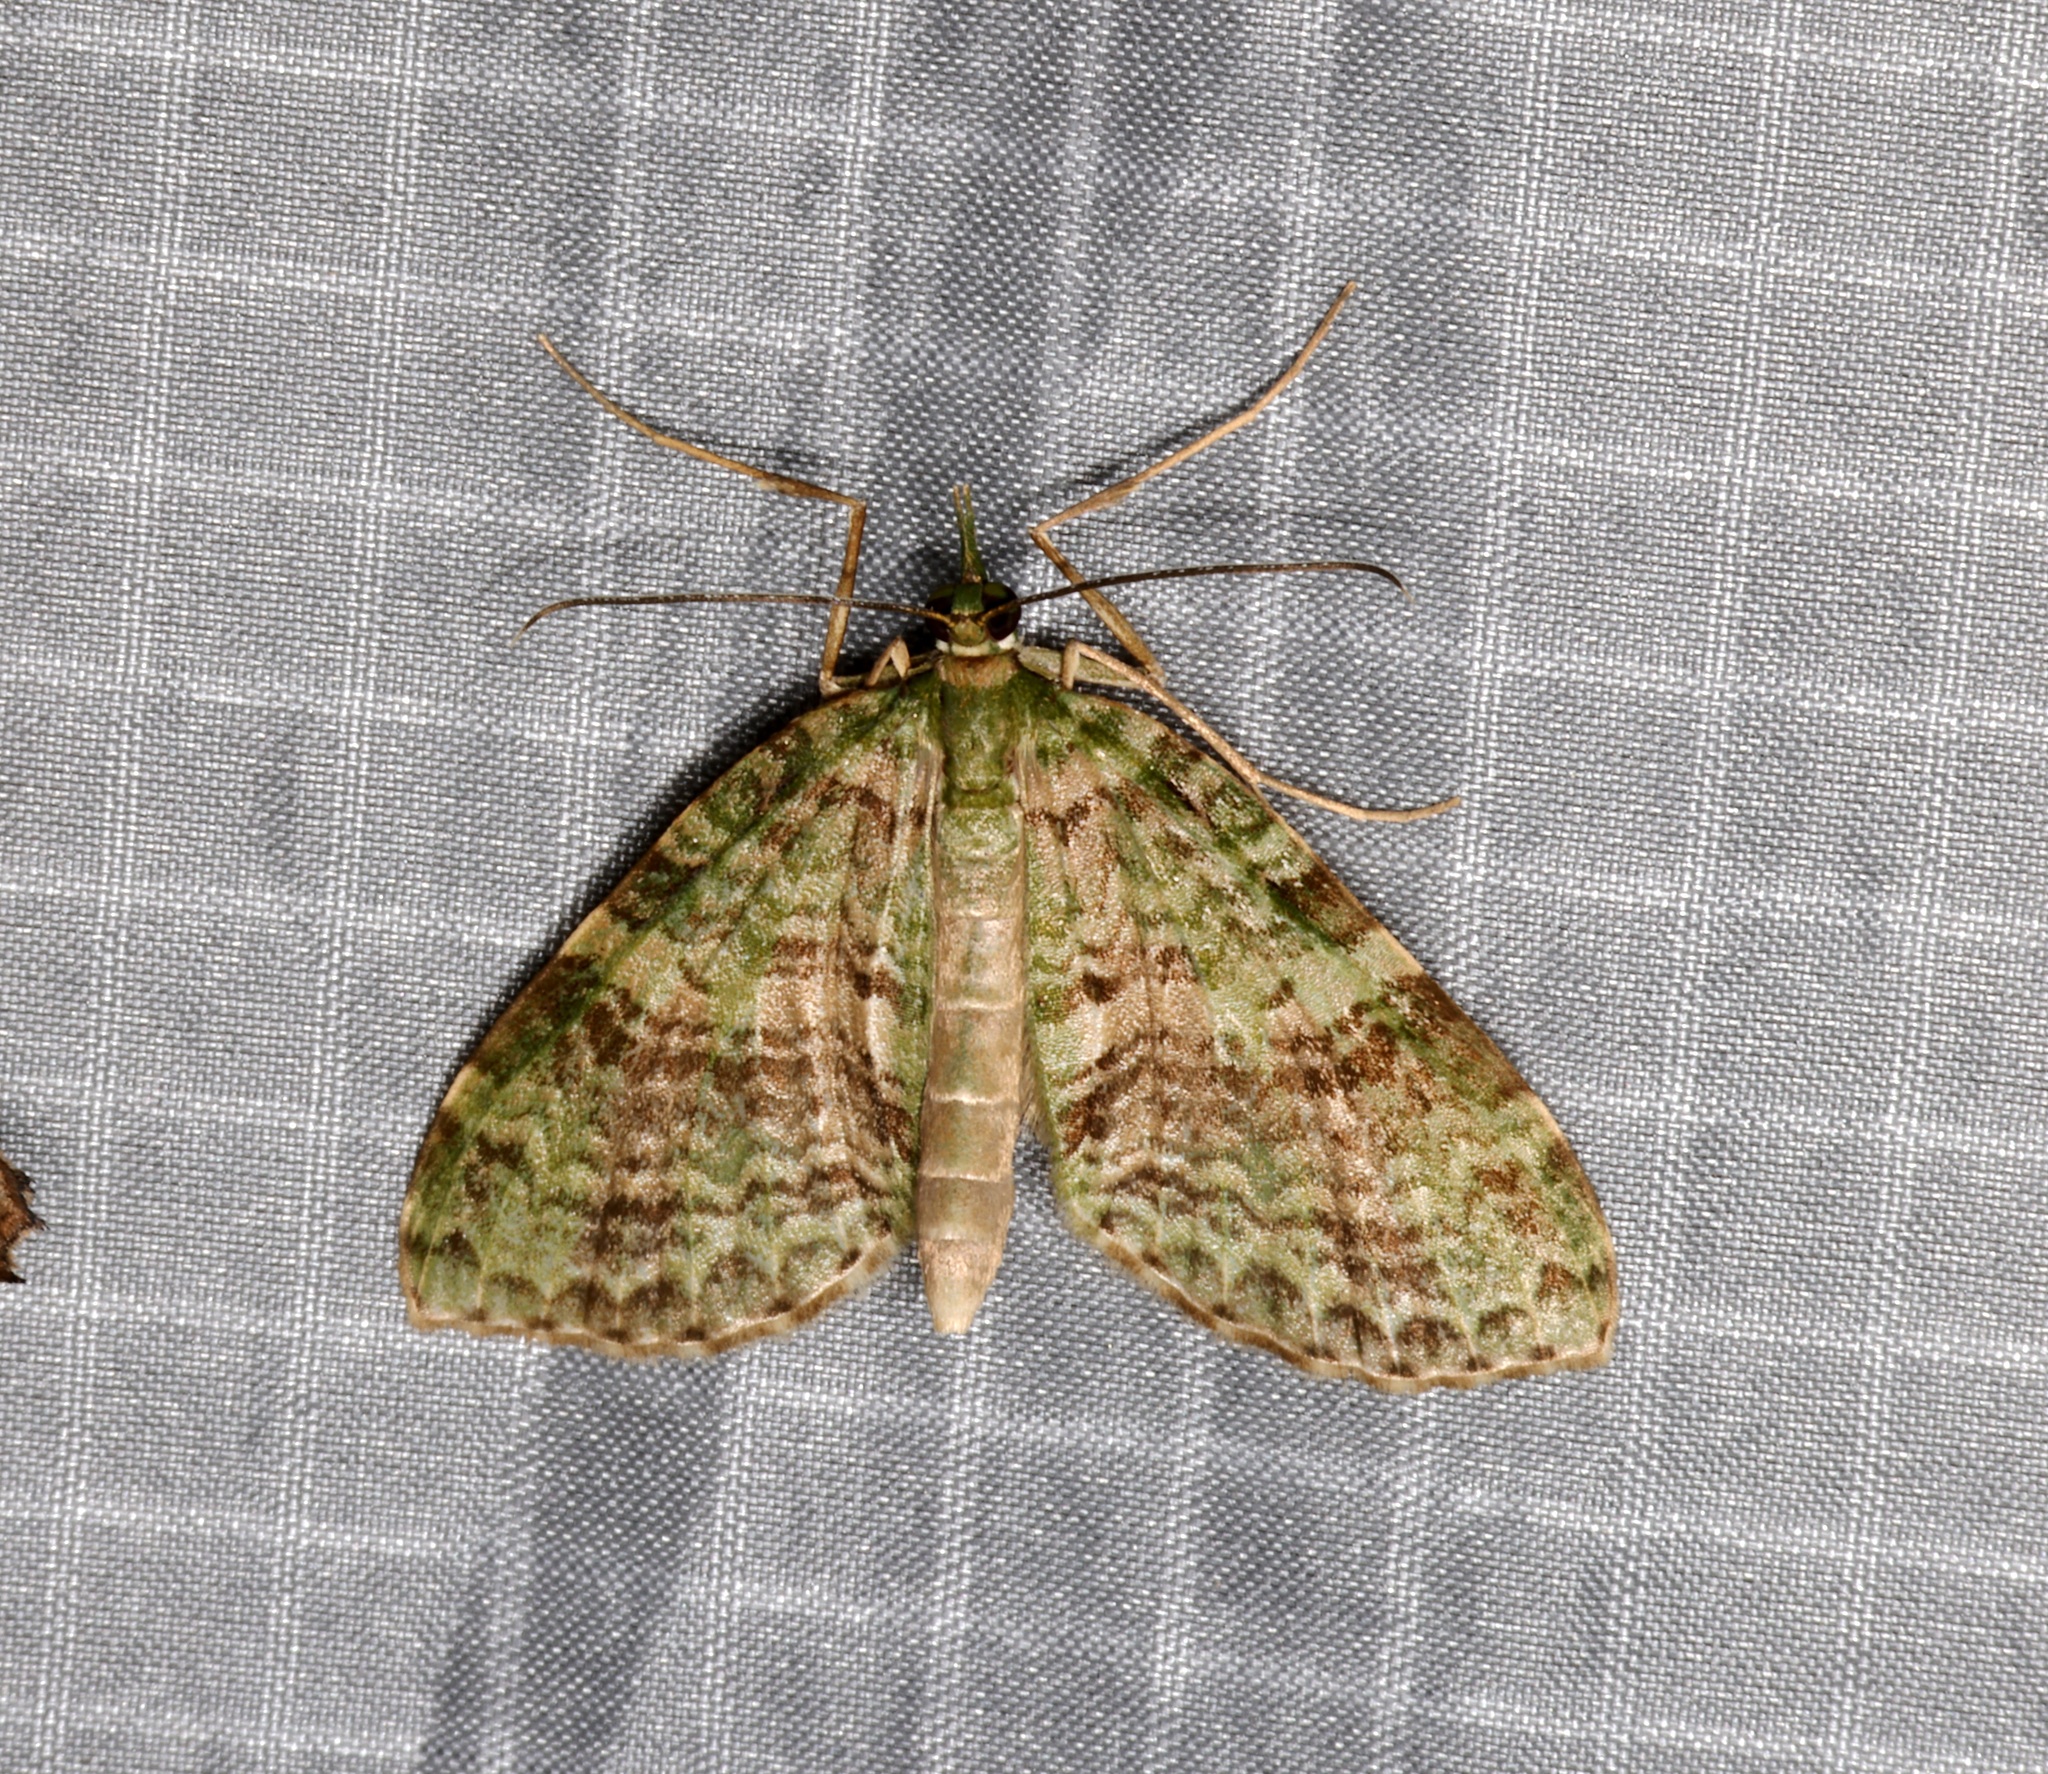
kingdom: Animalia
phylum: Arthropoda
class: Insecta
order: Lepidoptera
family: Geometridae
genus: Sauris
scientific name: Sauris
